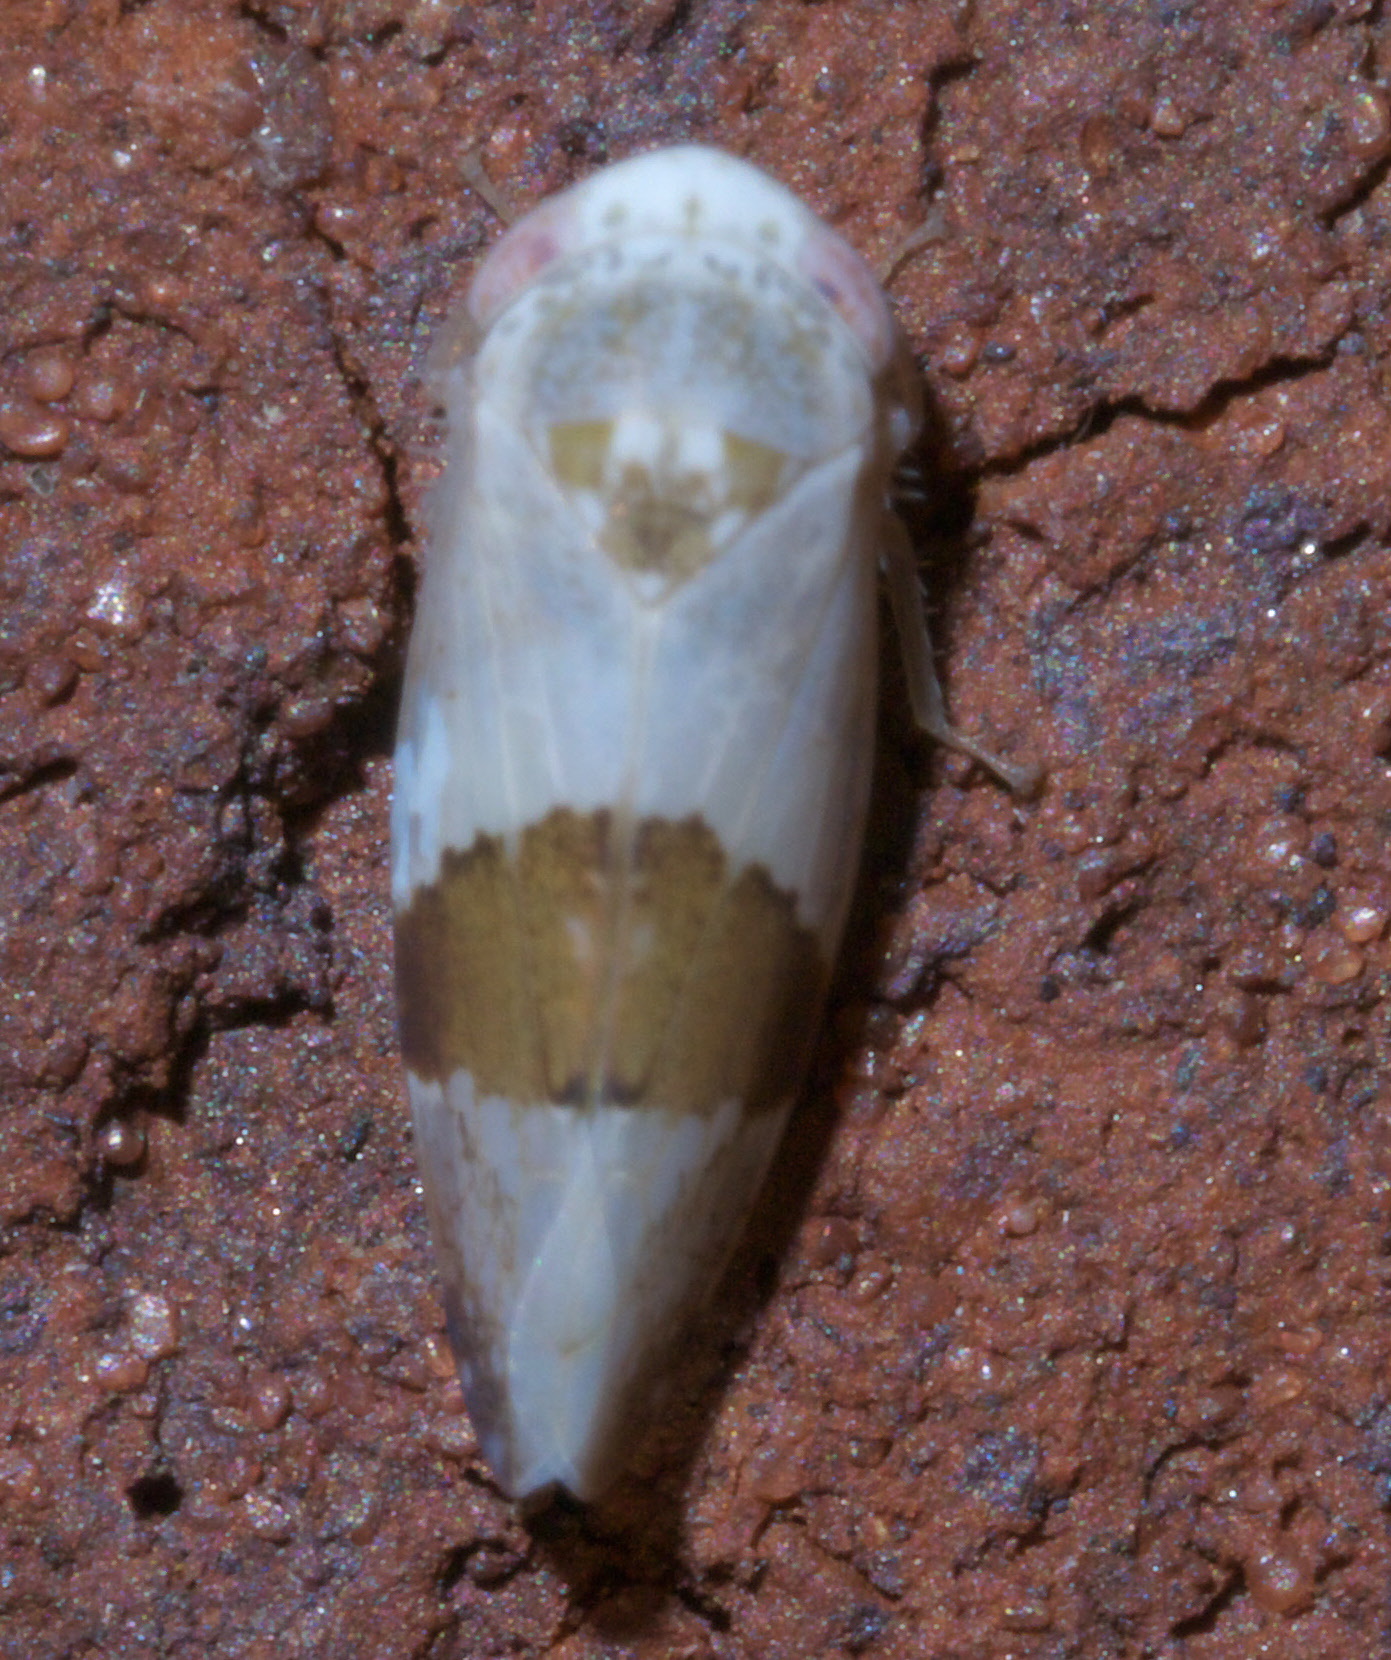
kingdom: Animalia
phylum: Arthropoda
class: Insecta
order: Hemiptera
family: Cicadellidae
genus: Norvellina
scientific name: Norvellina seminuda
